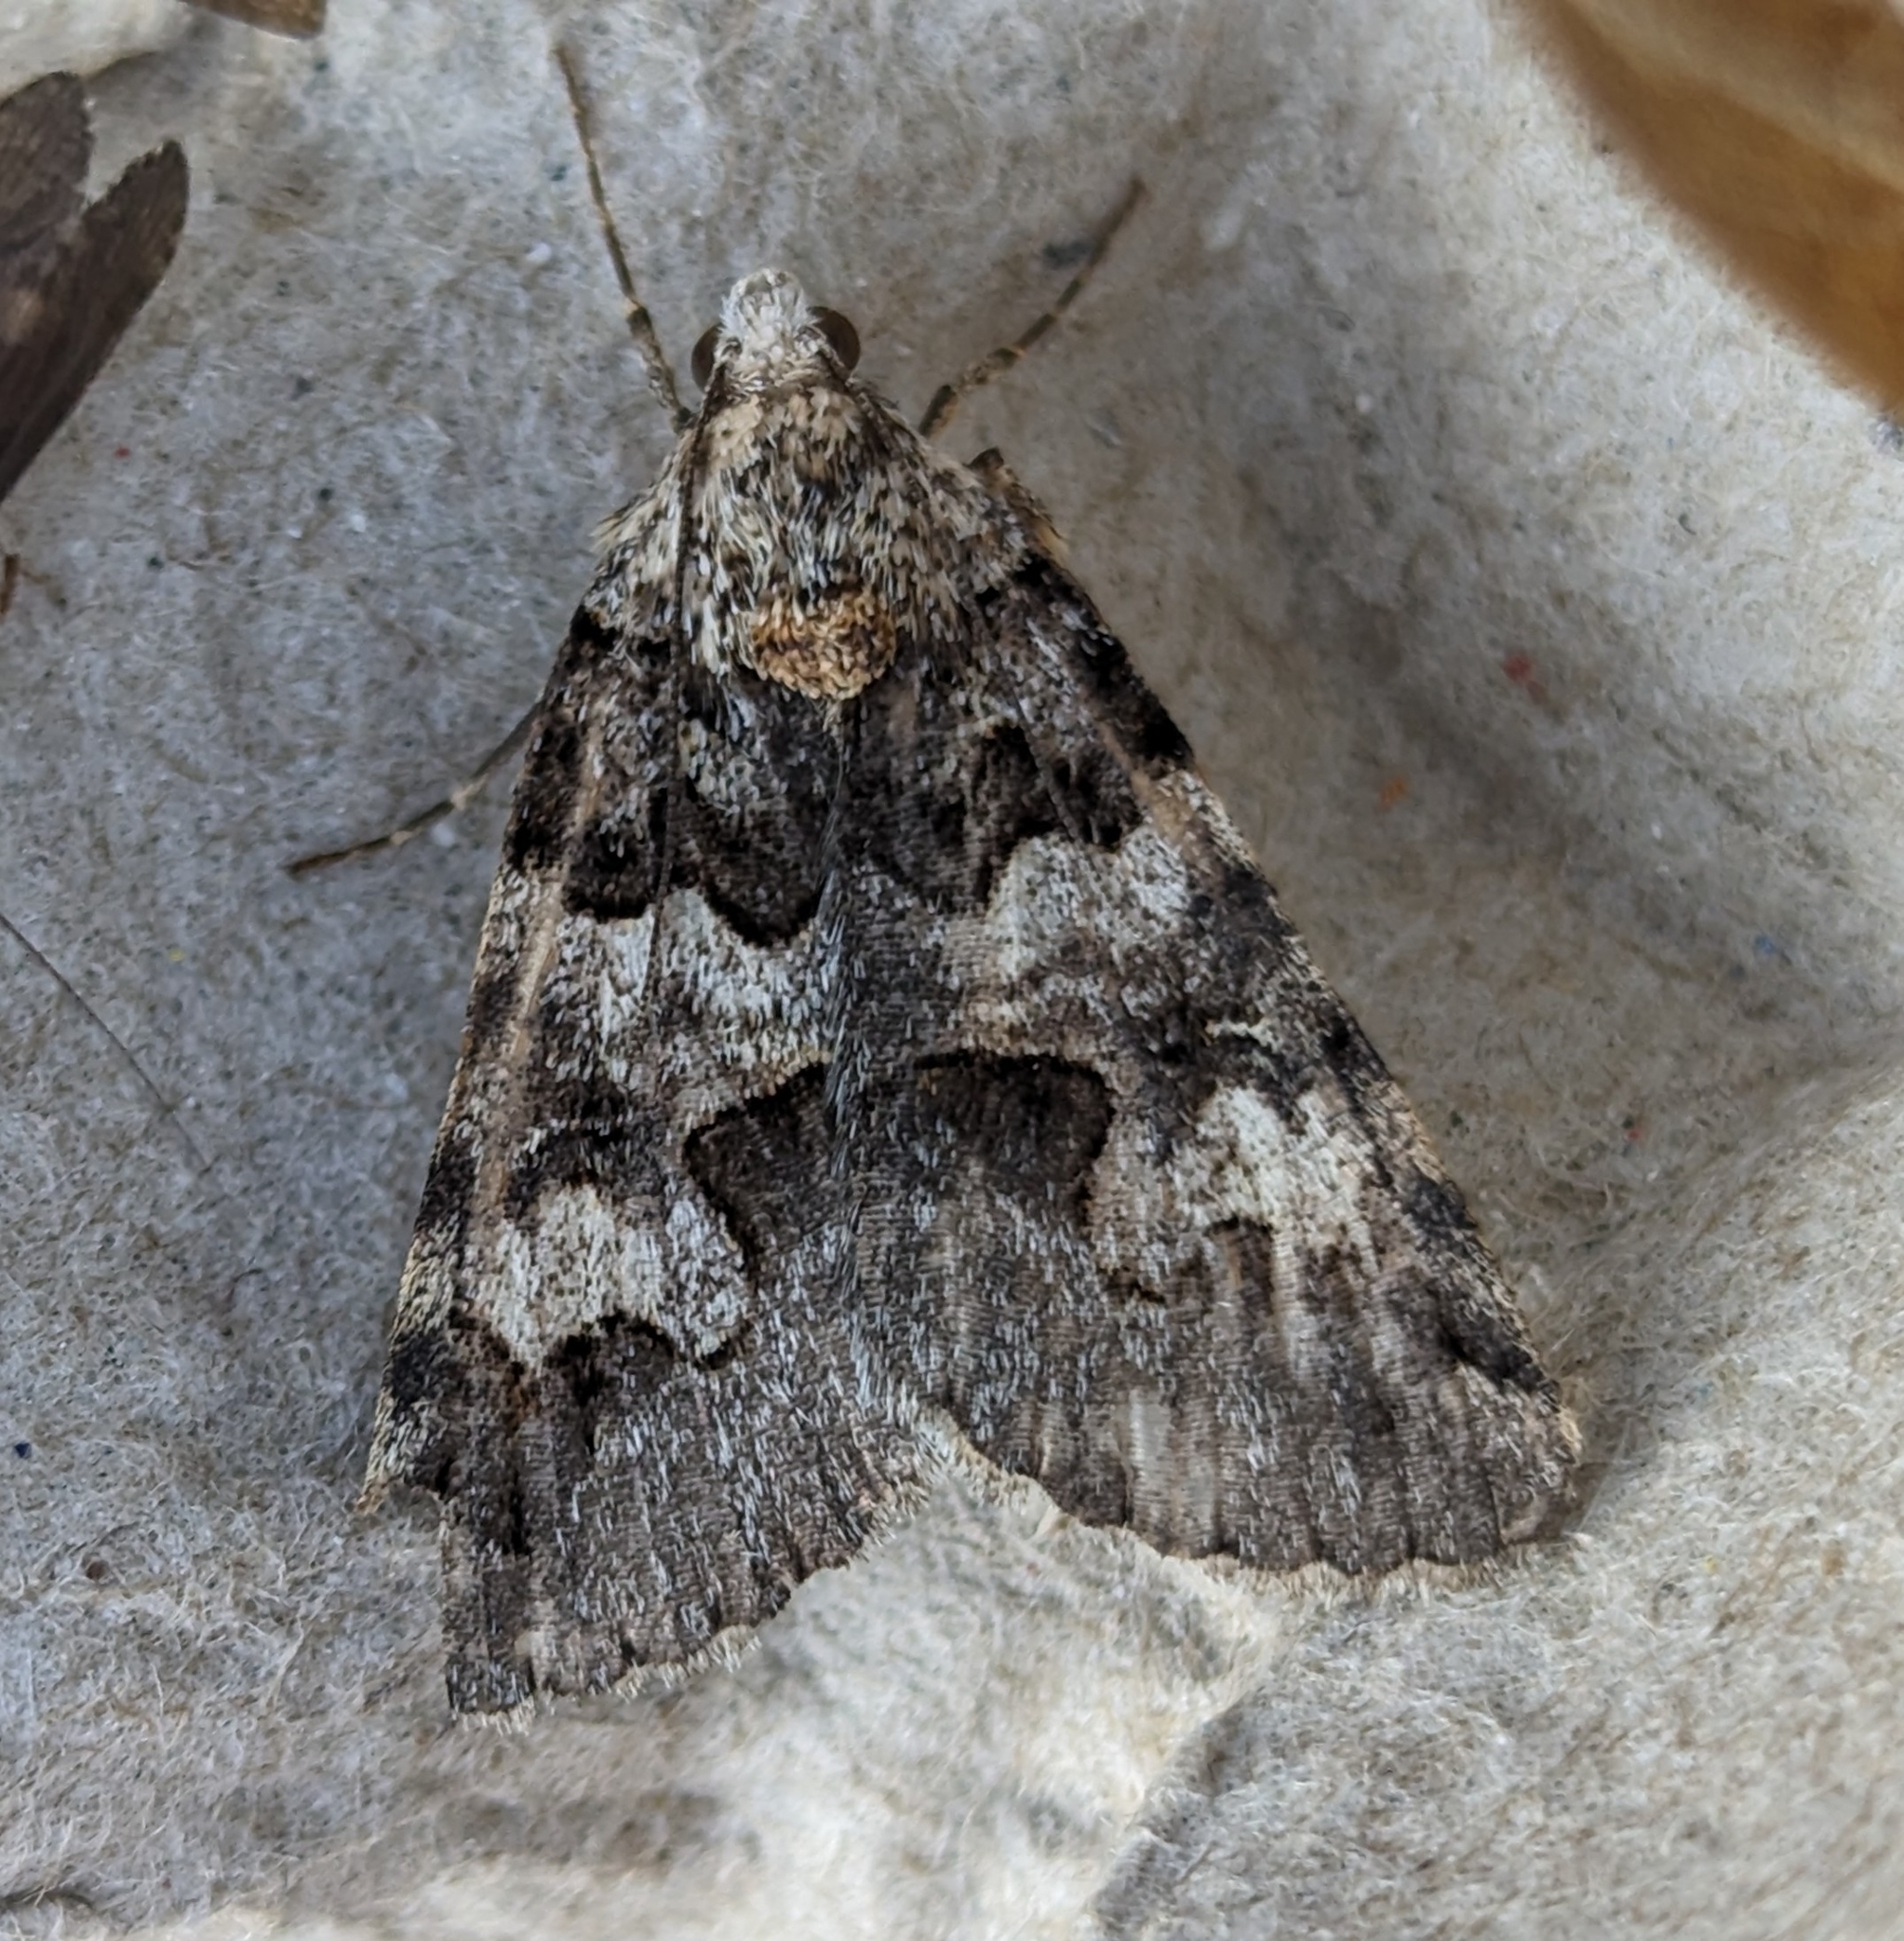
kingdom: Animalia
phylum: Arthropoda
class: Insecta
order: Lepidoptera
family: Erebidae
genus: Drasteria
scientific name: Drasteria sabulosa
